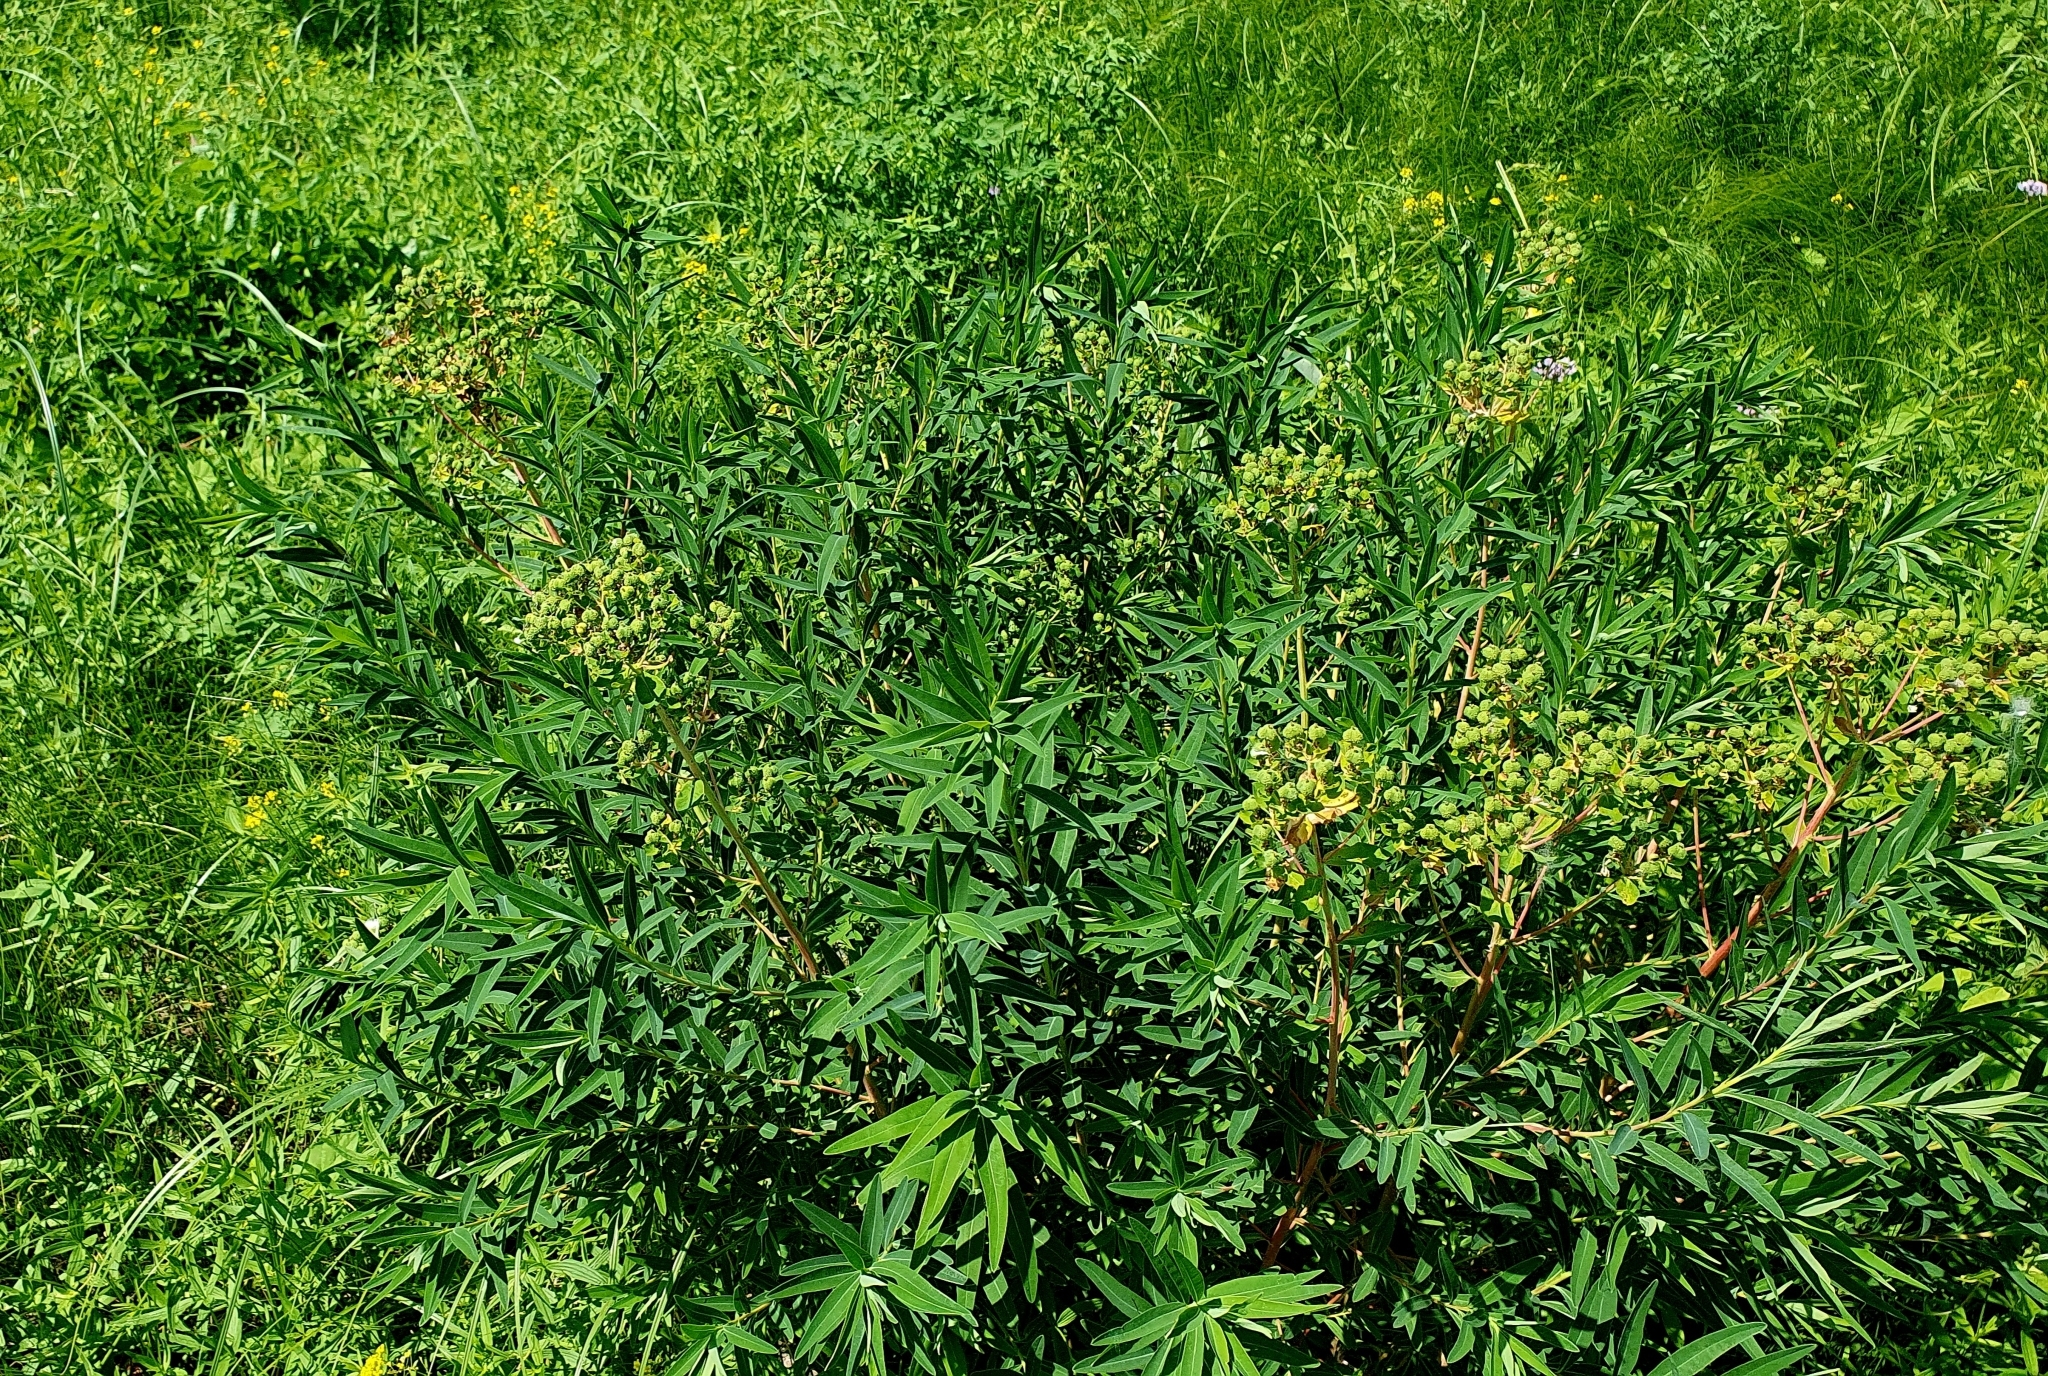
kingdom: Plantae
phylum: Tracheophyta
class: Magnoliopsida
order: Malpighiales
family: Euphorbiaceae
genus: Euphorbia
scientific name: Euphorbia palustris
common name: Marsh spurge
